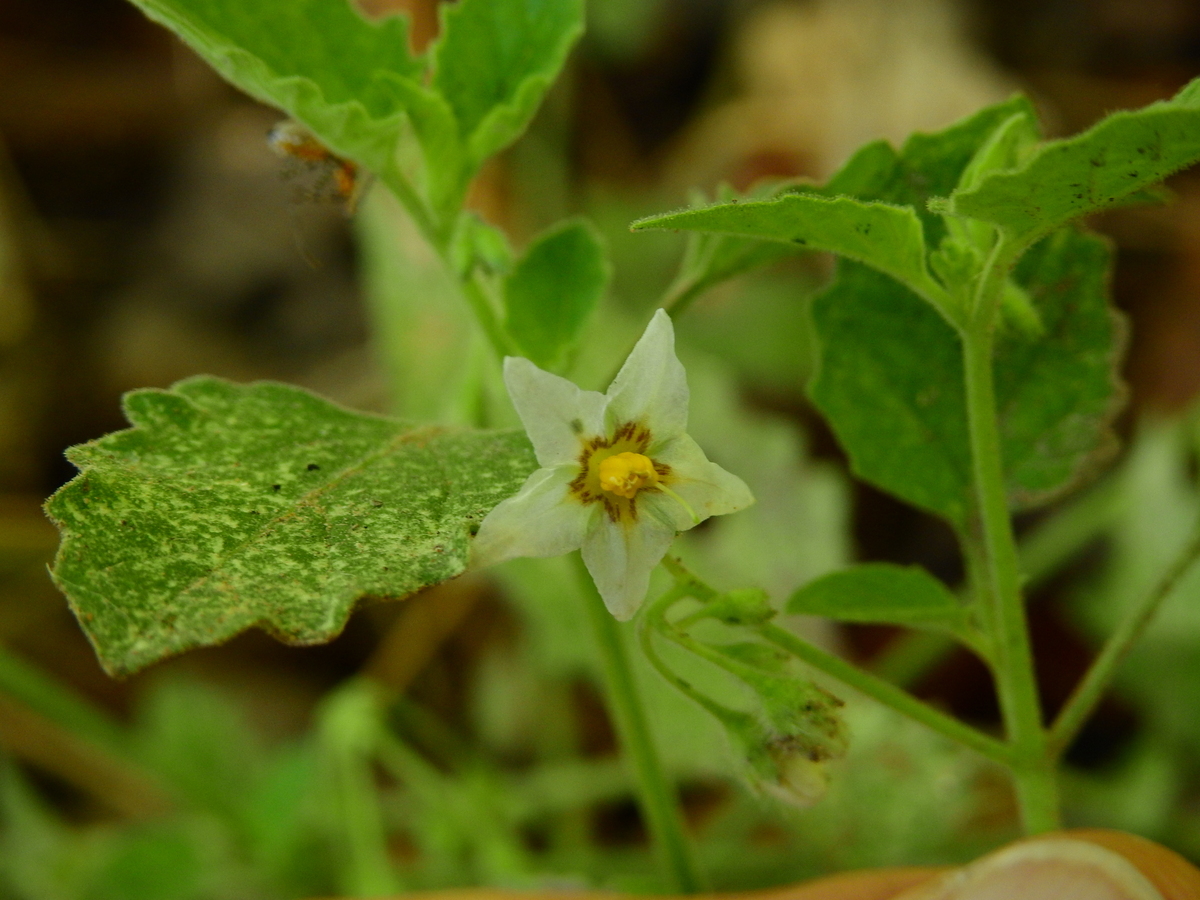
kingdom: Plantae
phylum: Tracheophyta
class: Magnoliopsida
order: Solanales
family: Solanaceae
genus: Solanum
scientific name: Solanum tweedianum
